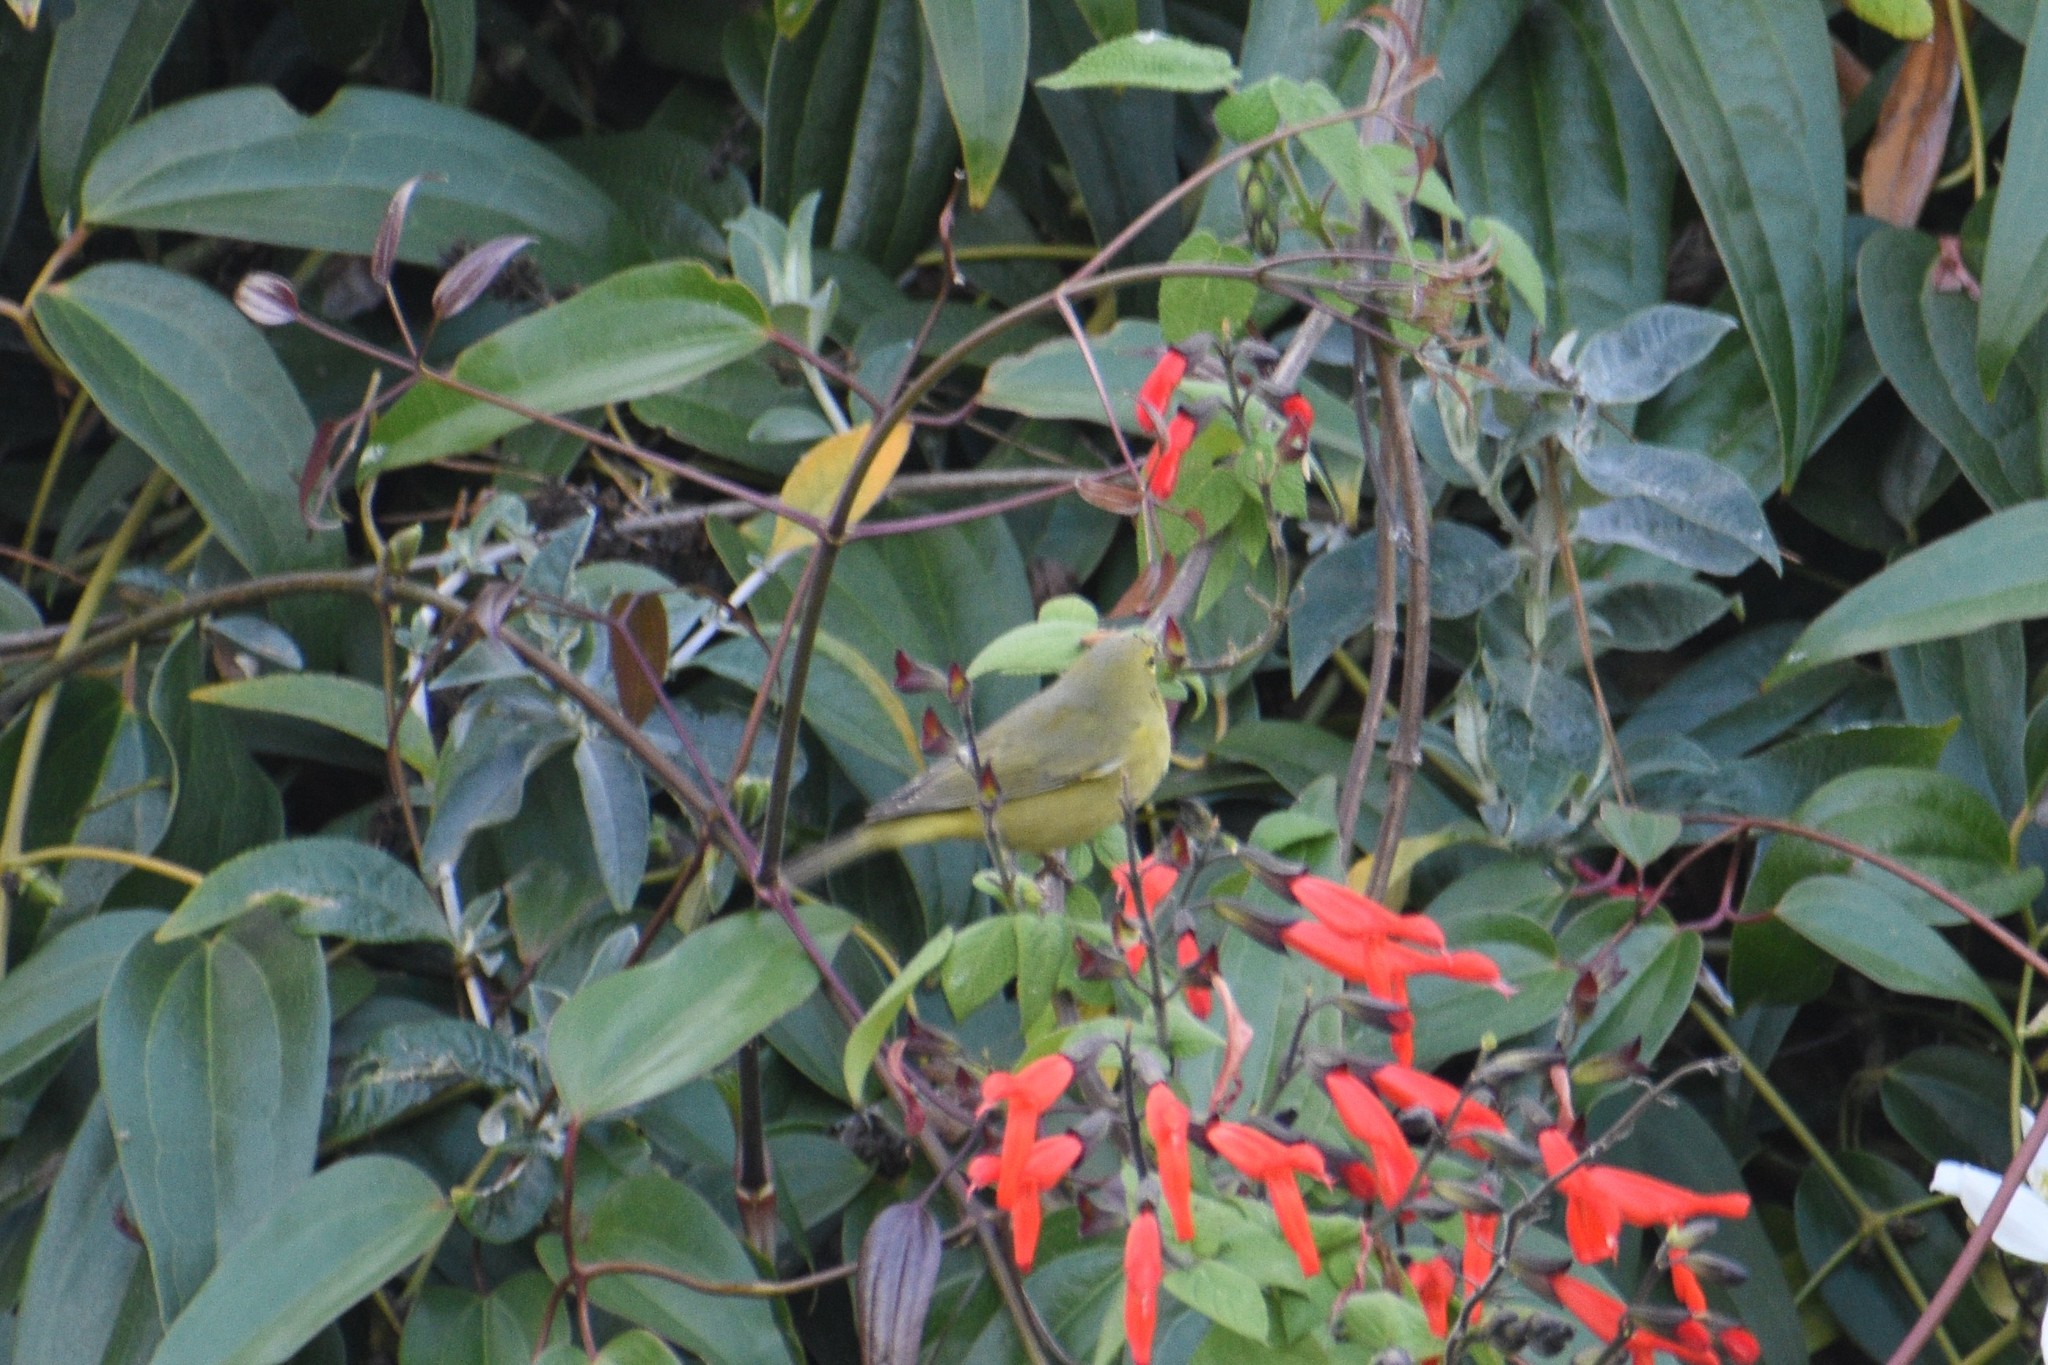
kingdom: Animalia
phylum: Chordata
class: Aves
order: Passeriformes
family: Parulidae
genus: Leiothlypis
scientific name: Leiothlypis celata
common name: Orange-crowned warbler
